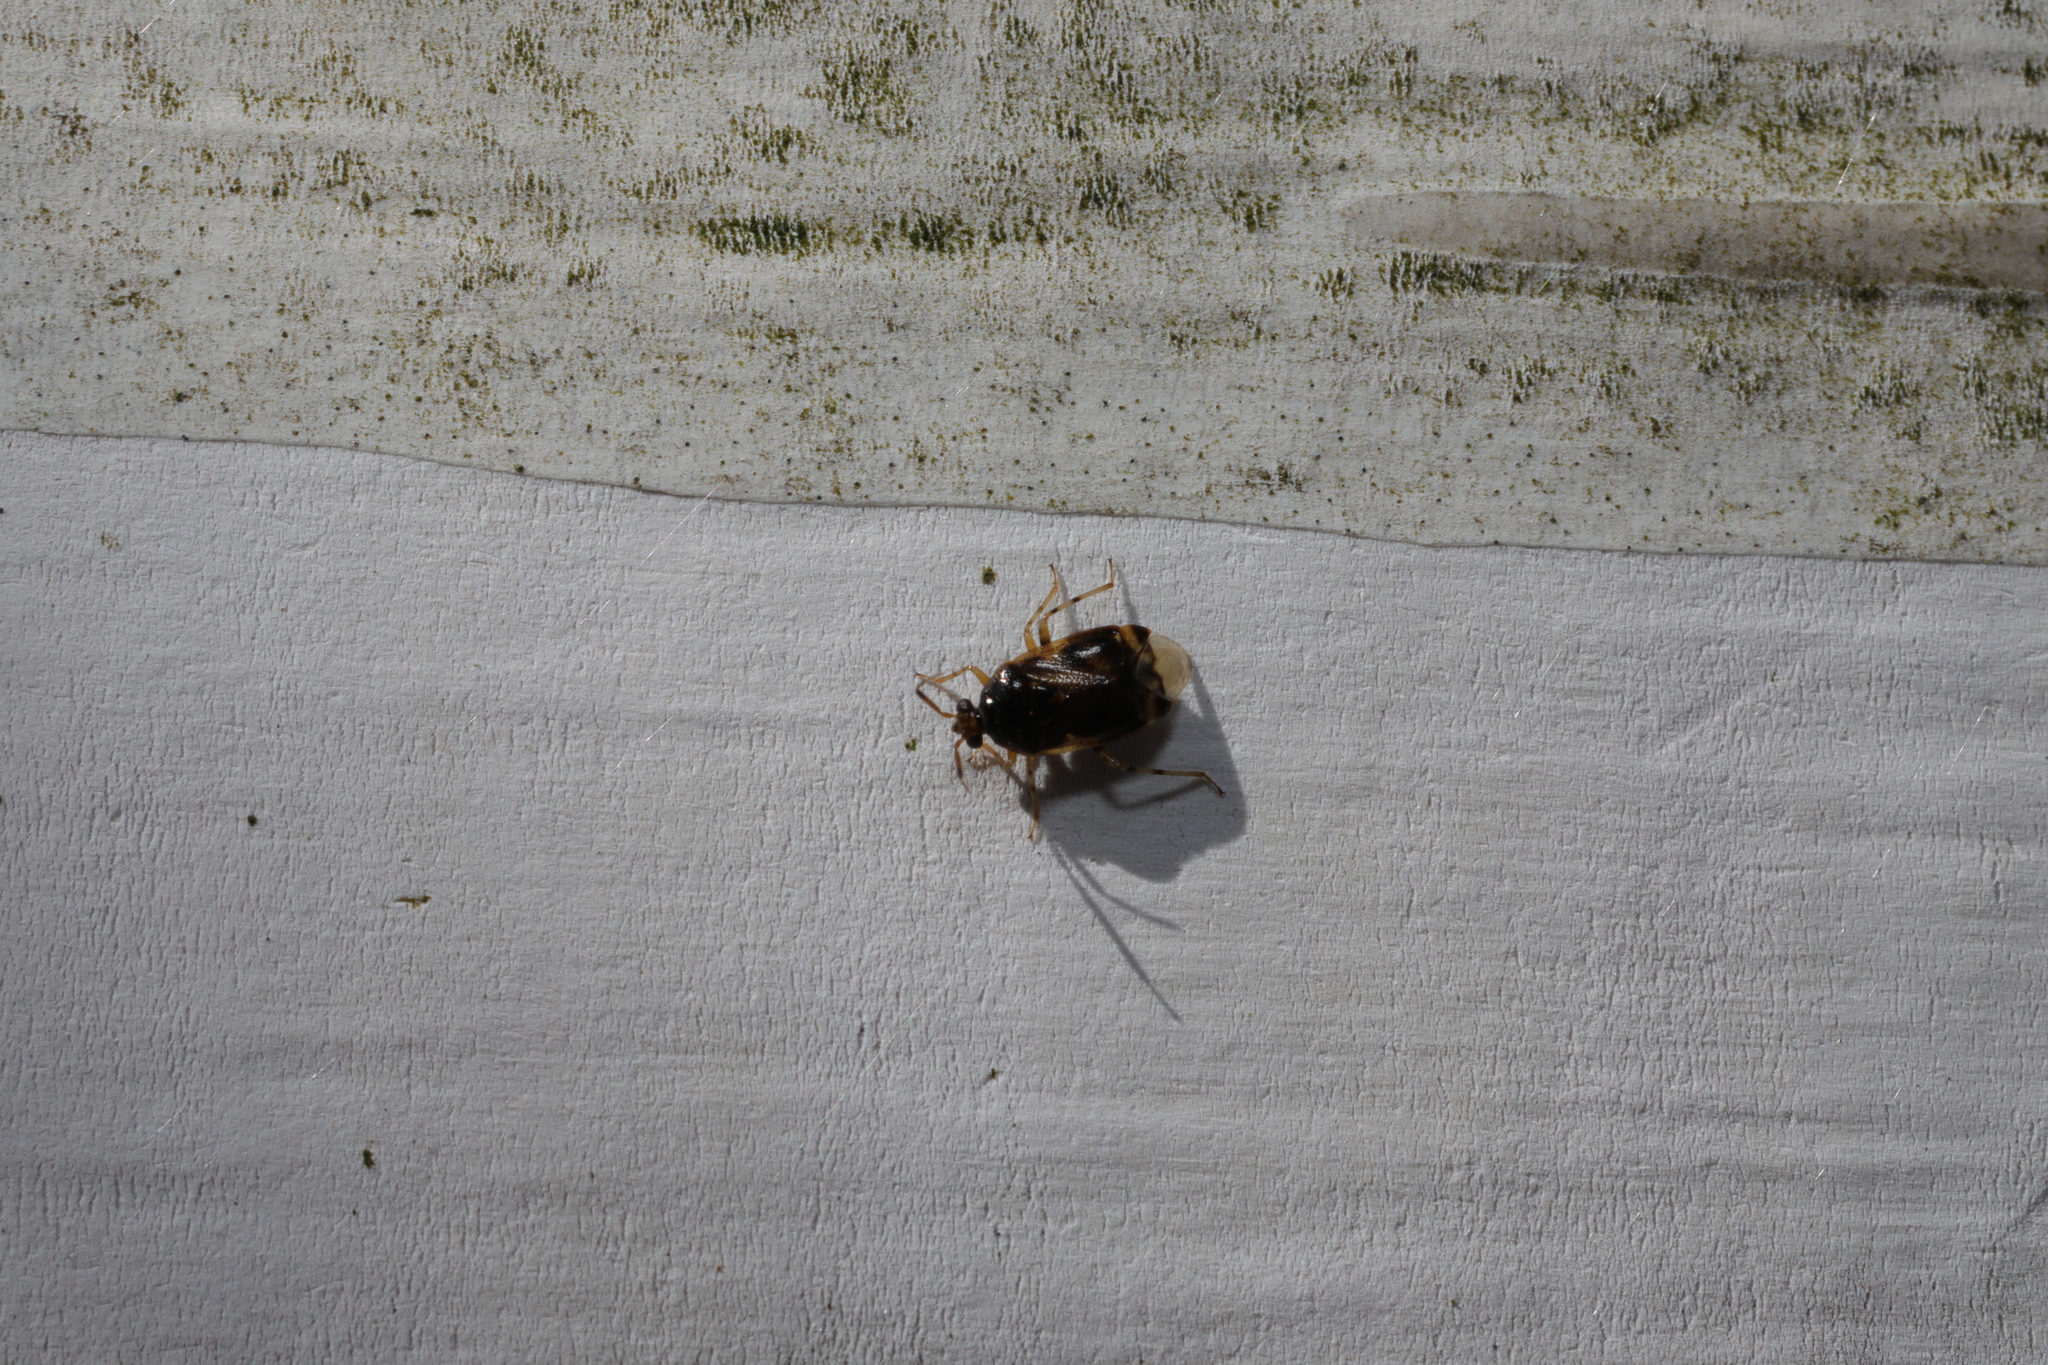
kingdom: Animalia
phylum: Arthropoda
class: Insecta
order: Hemiptera
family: Miridae
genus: Deraeocoris
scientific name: Deraeocoris lutescens
